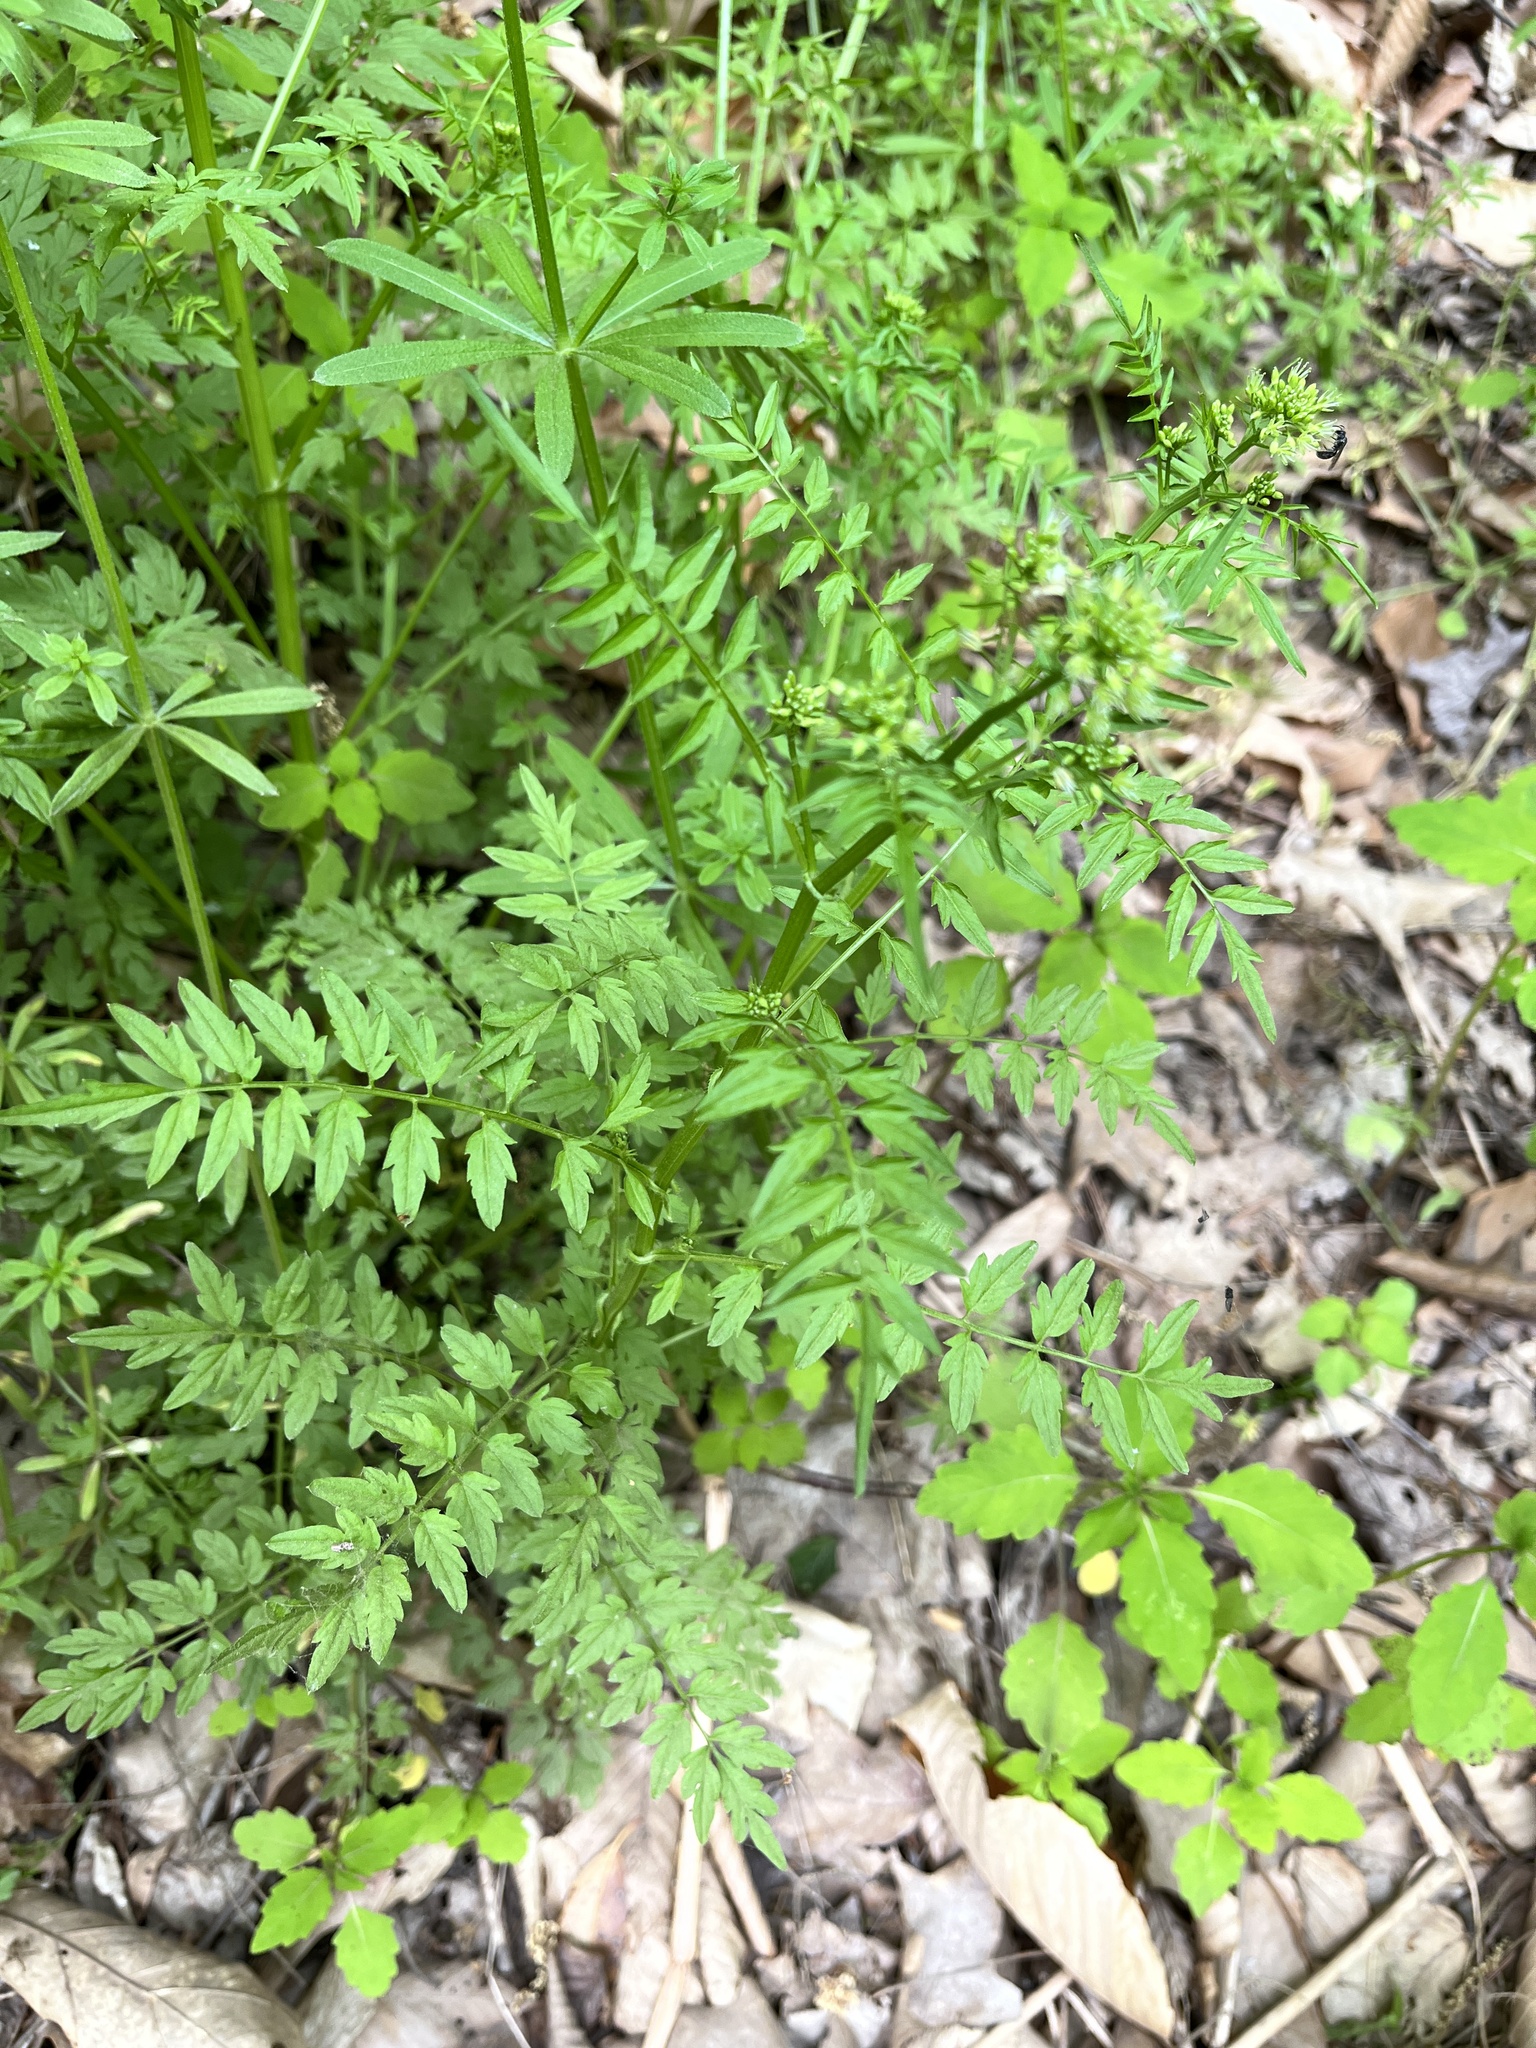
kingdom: Plantae
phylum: Tracheophyta
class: Magnoliopsida
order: Brassicales
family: Brassicaceae
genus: Cardamine
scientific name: Cardamine impatiens
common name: Narrow-leaved bitter-cress
